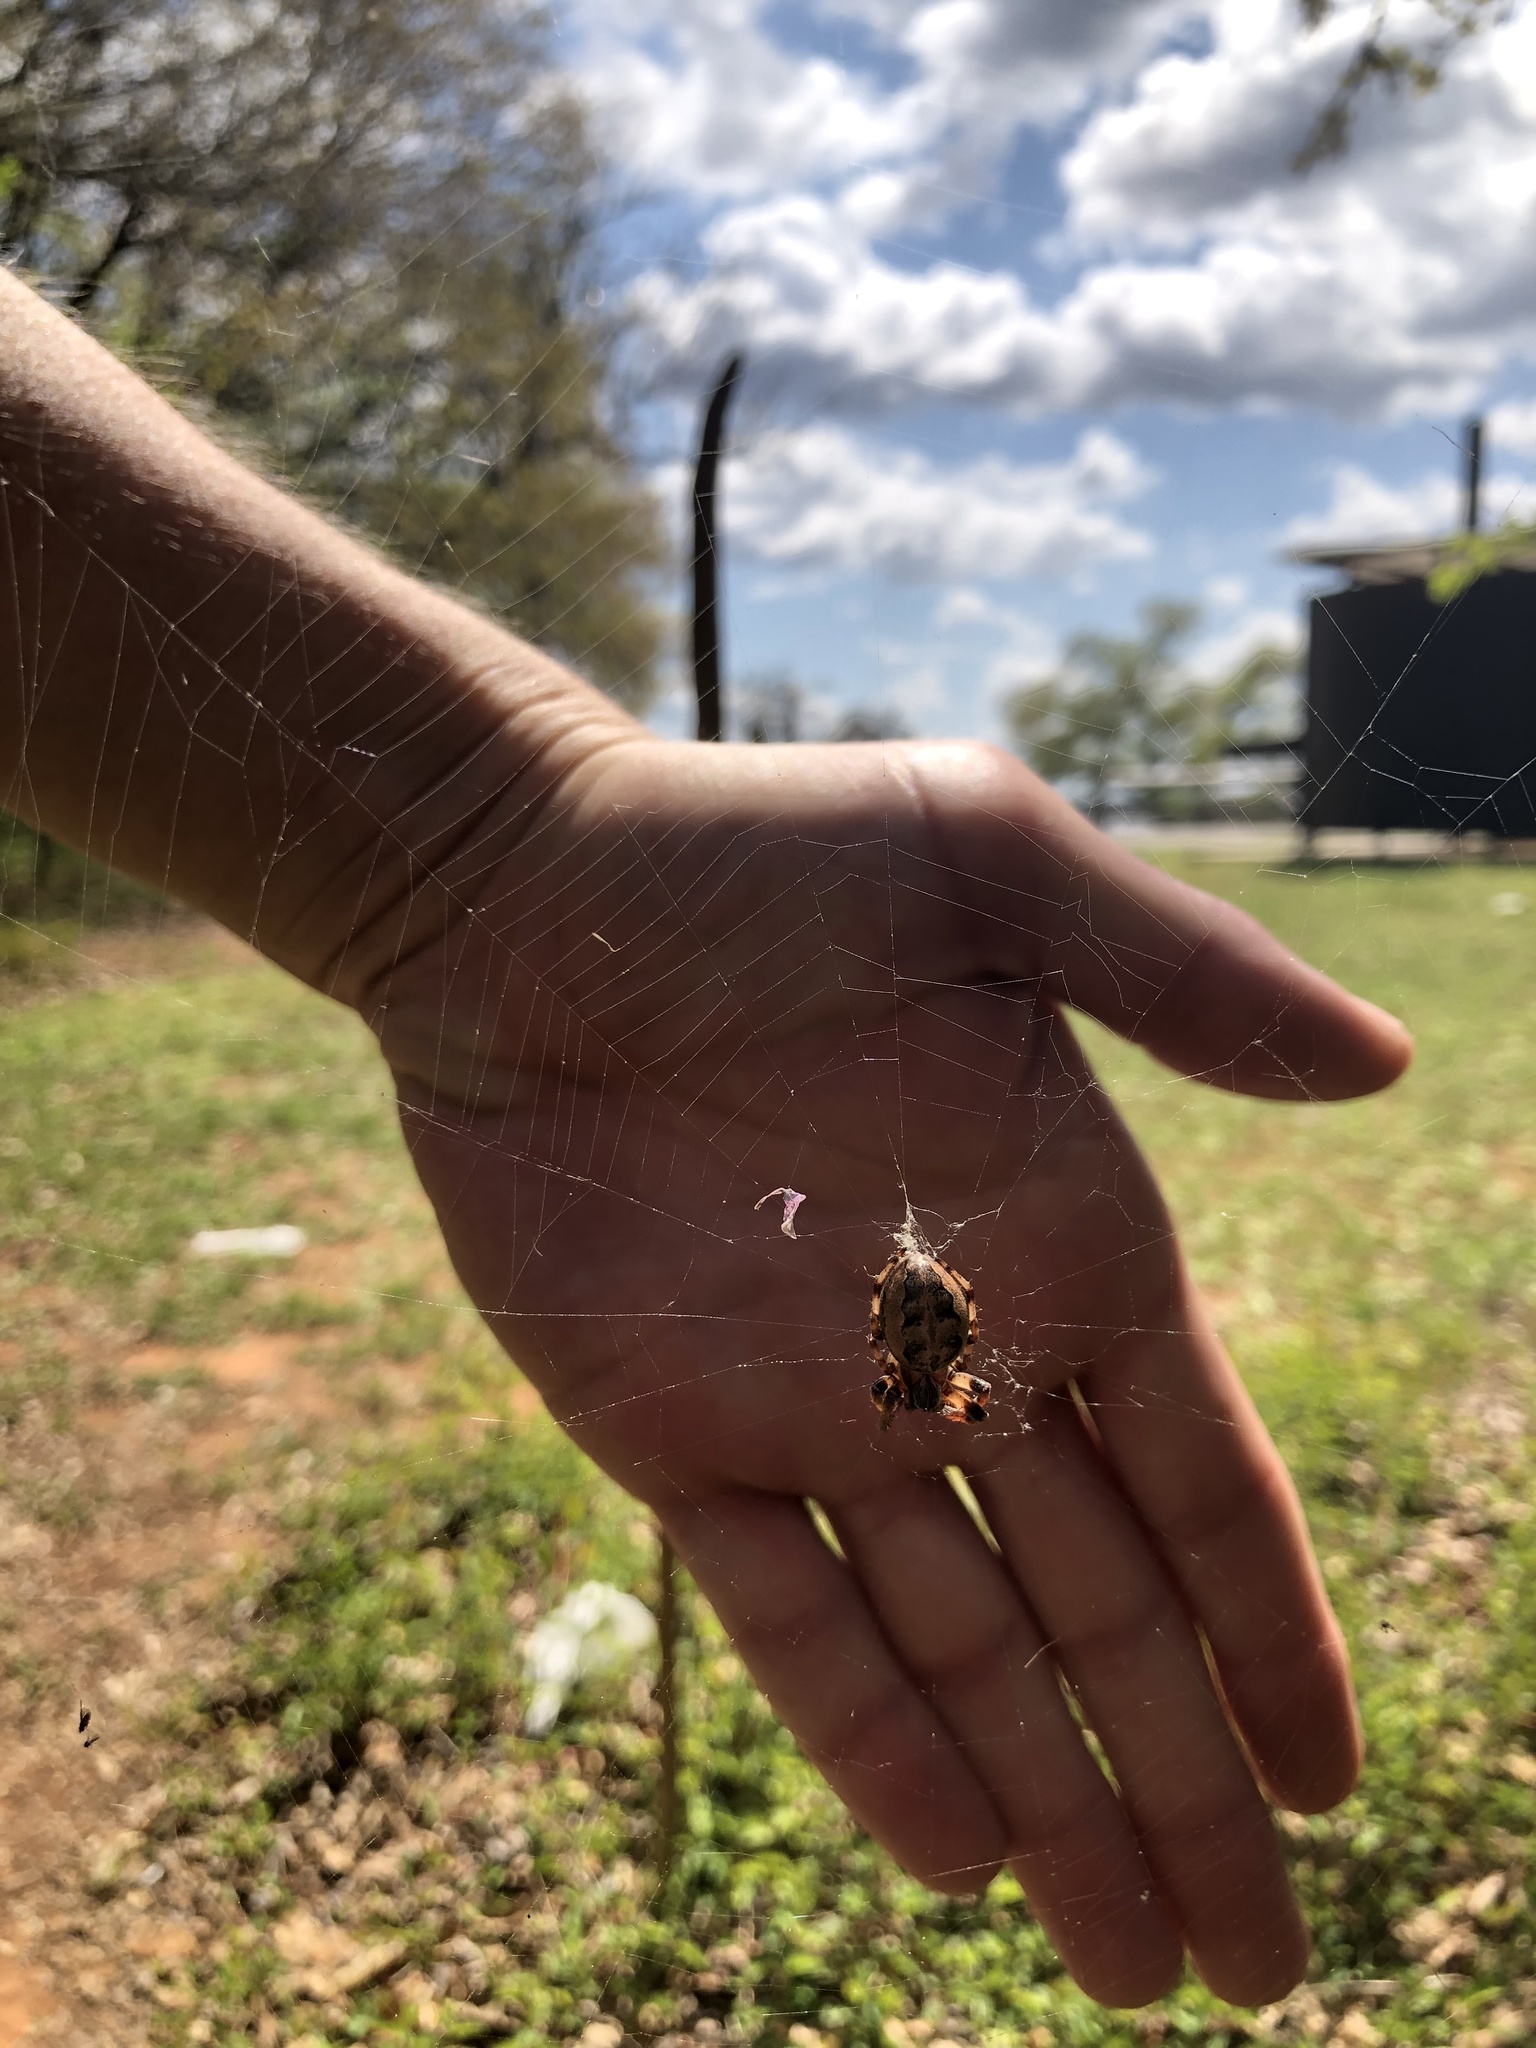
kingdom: Animalia
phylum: Arthropoda
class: Arachnida
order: Araneae
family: Araneidae
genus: Larinioides
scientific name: Larinioides cornutus
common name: Furrow orbweaver
